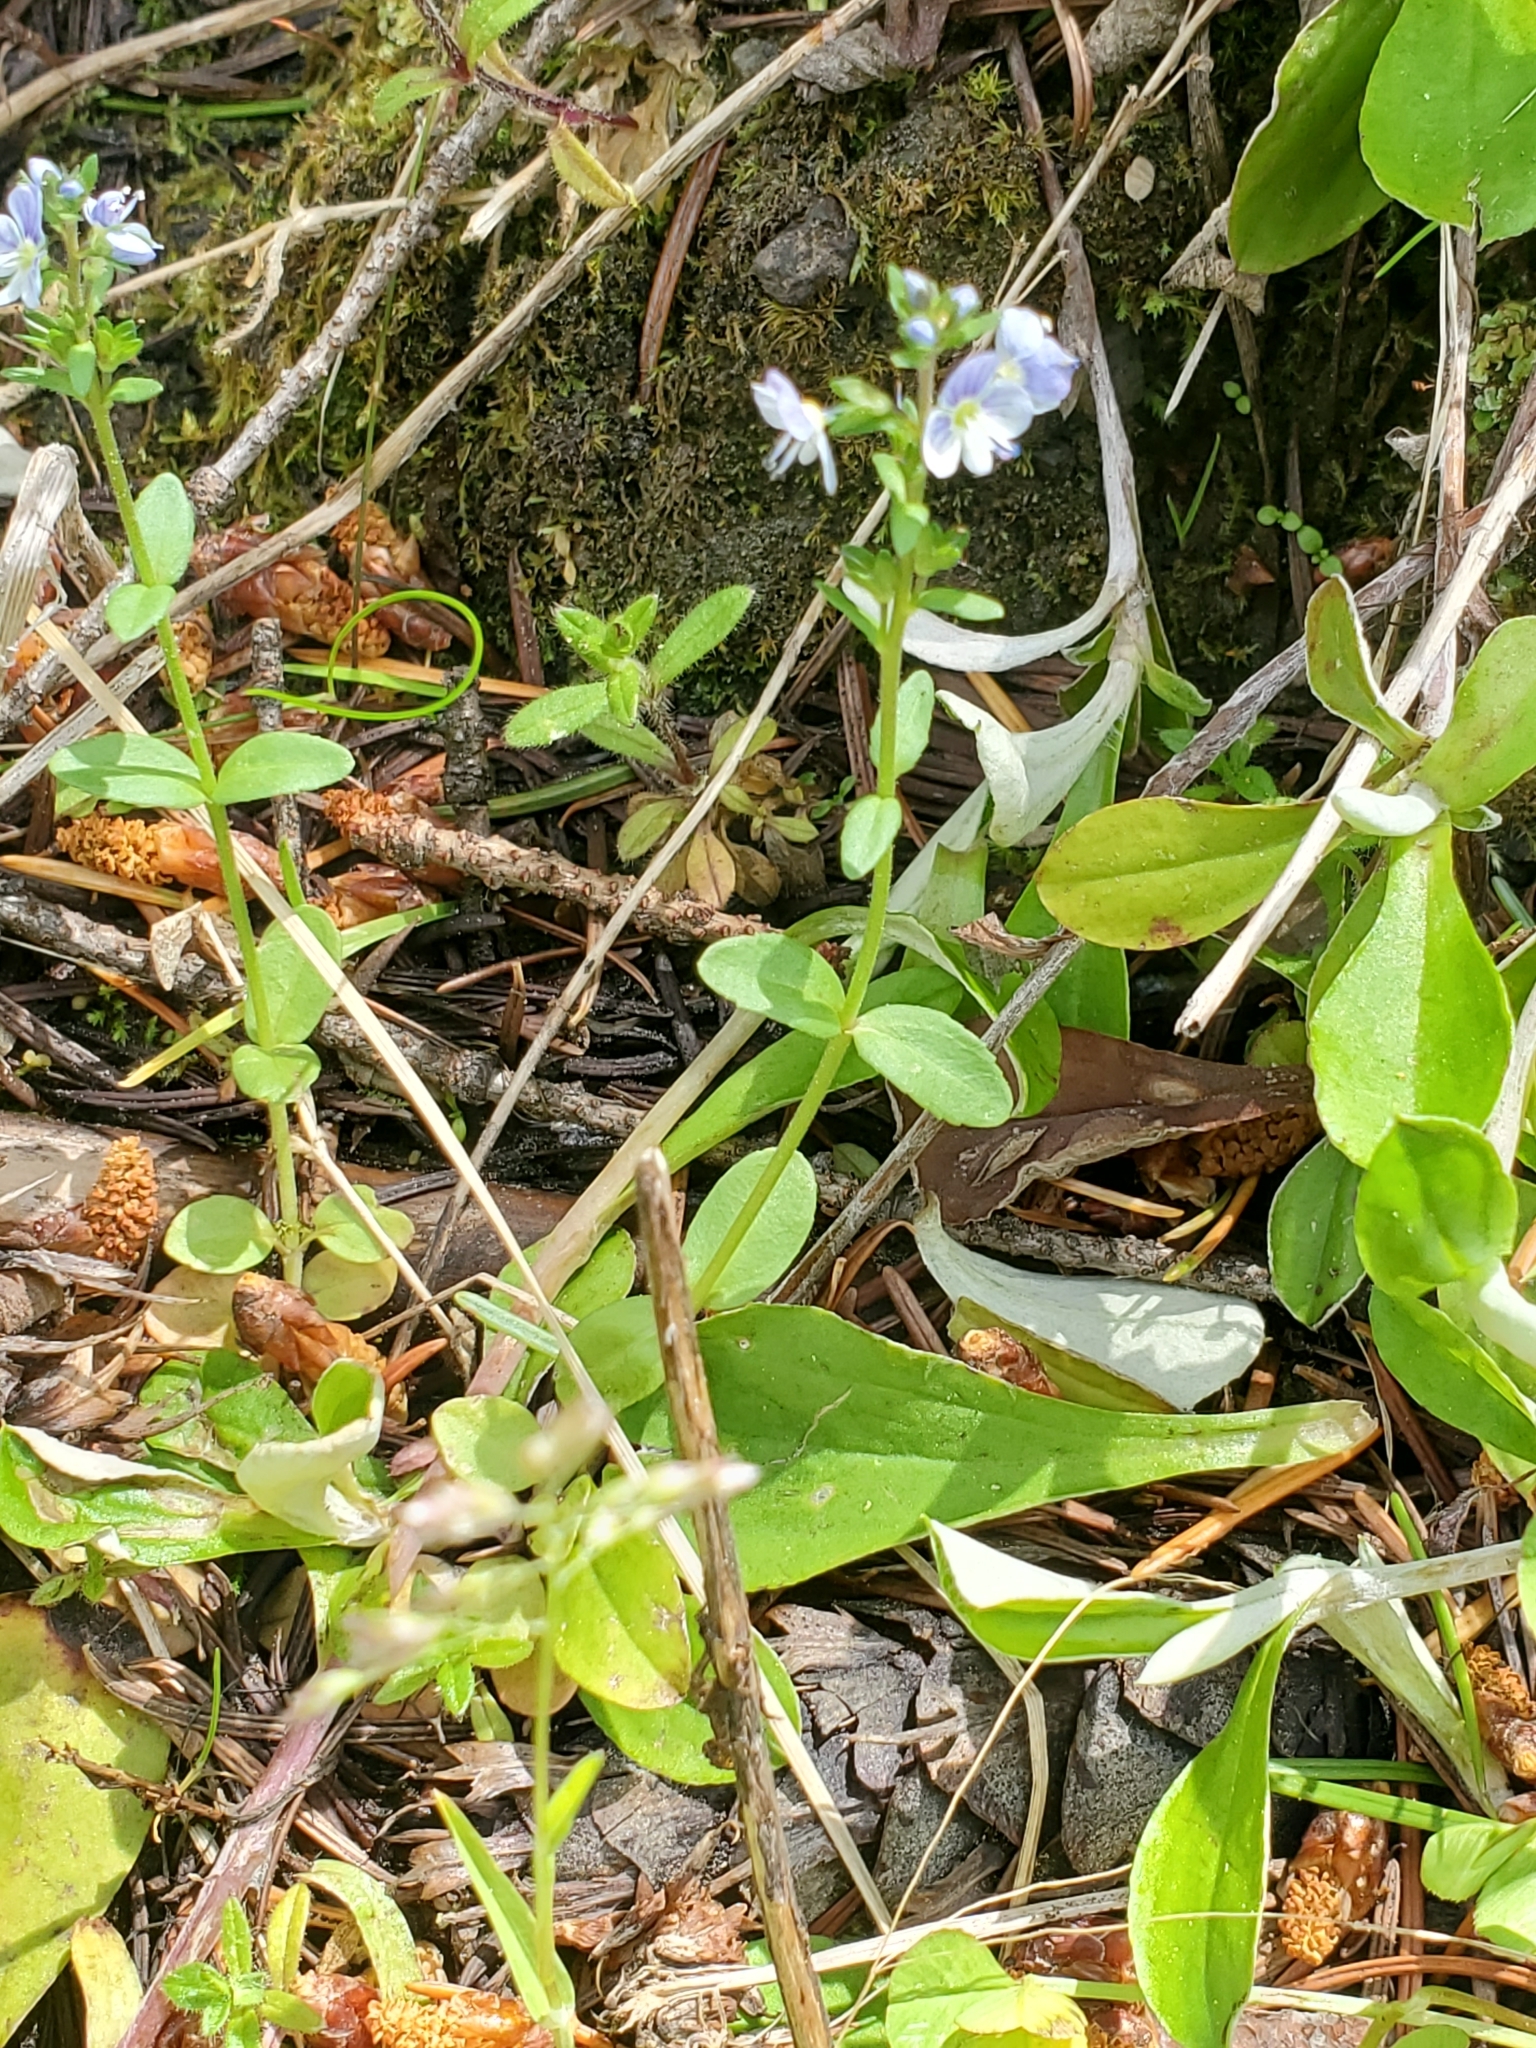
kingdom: Plantae
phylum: Tracheophyta
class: Magnoliopsida
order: Lamiales
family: Plantaginaceae
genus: Veronica
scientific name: Veronica serpyllifolia
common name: Thyme-leaved speedwell
